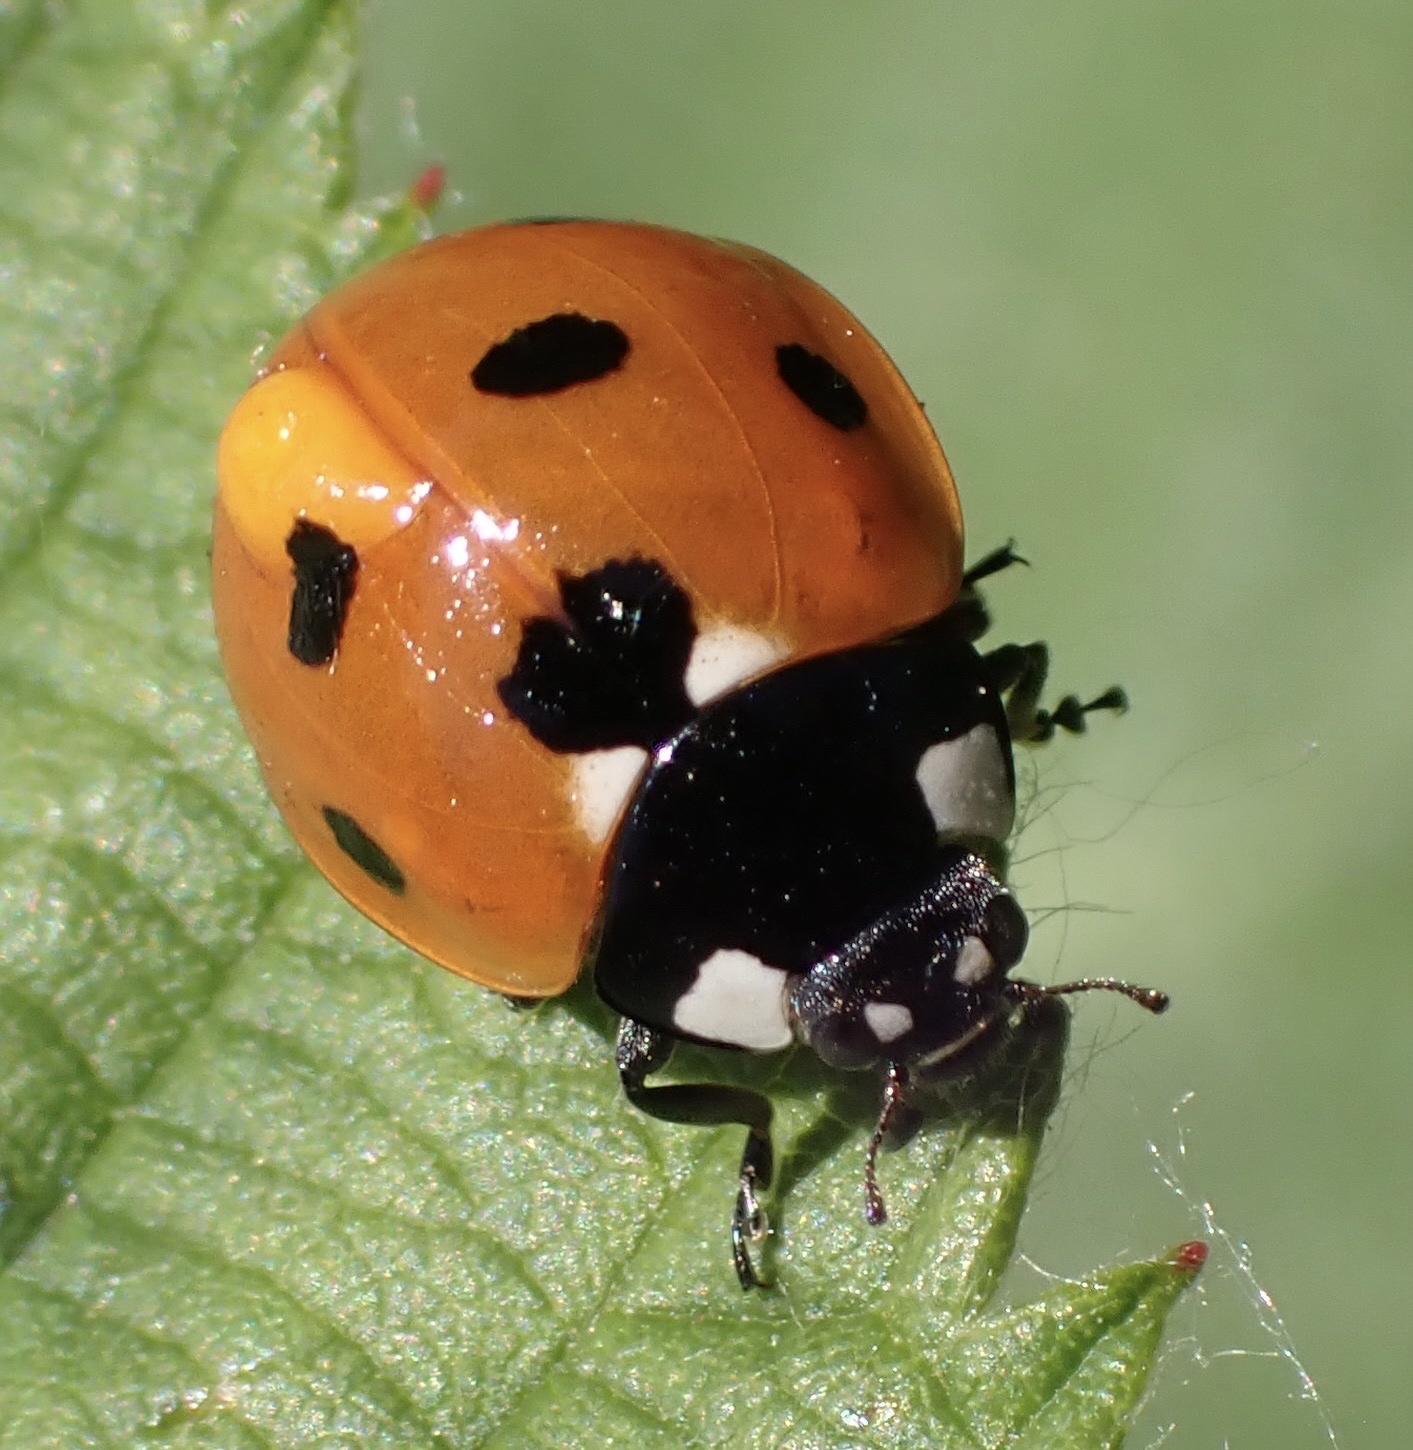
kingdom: Animalia
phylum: Arthropoda
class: Insecta
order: Coleoptera
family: Coccinellidae
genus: Coccinella
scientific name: Coccinella septempunctata
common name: Sevenspotted lady beetle
